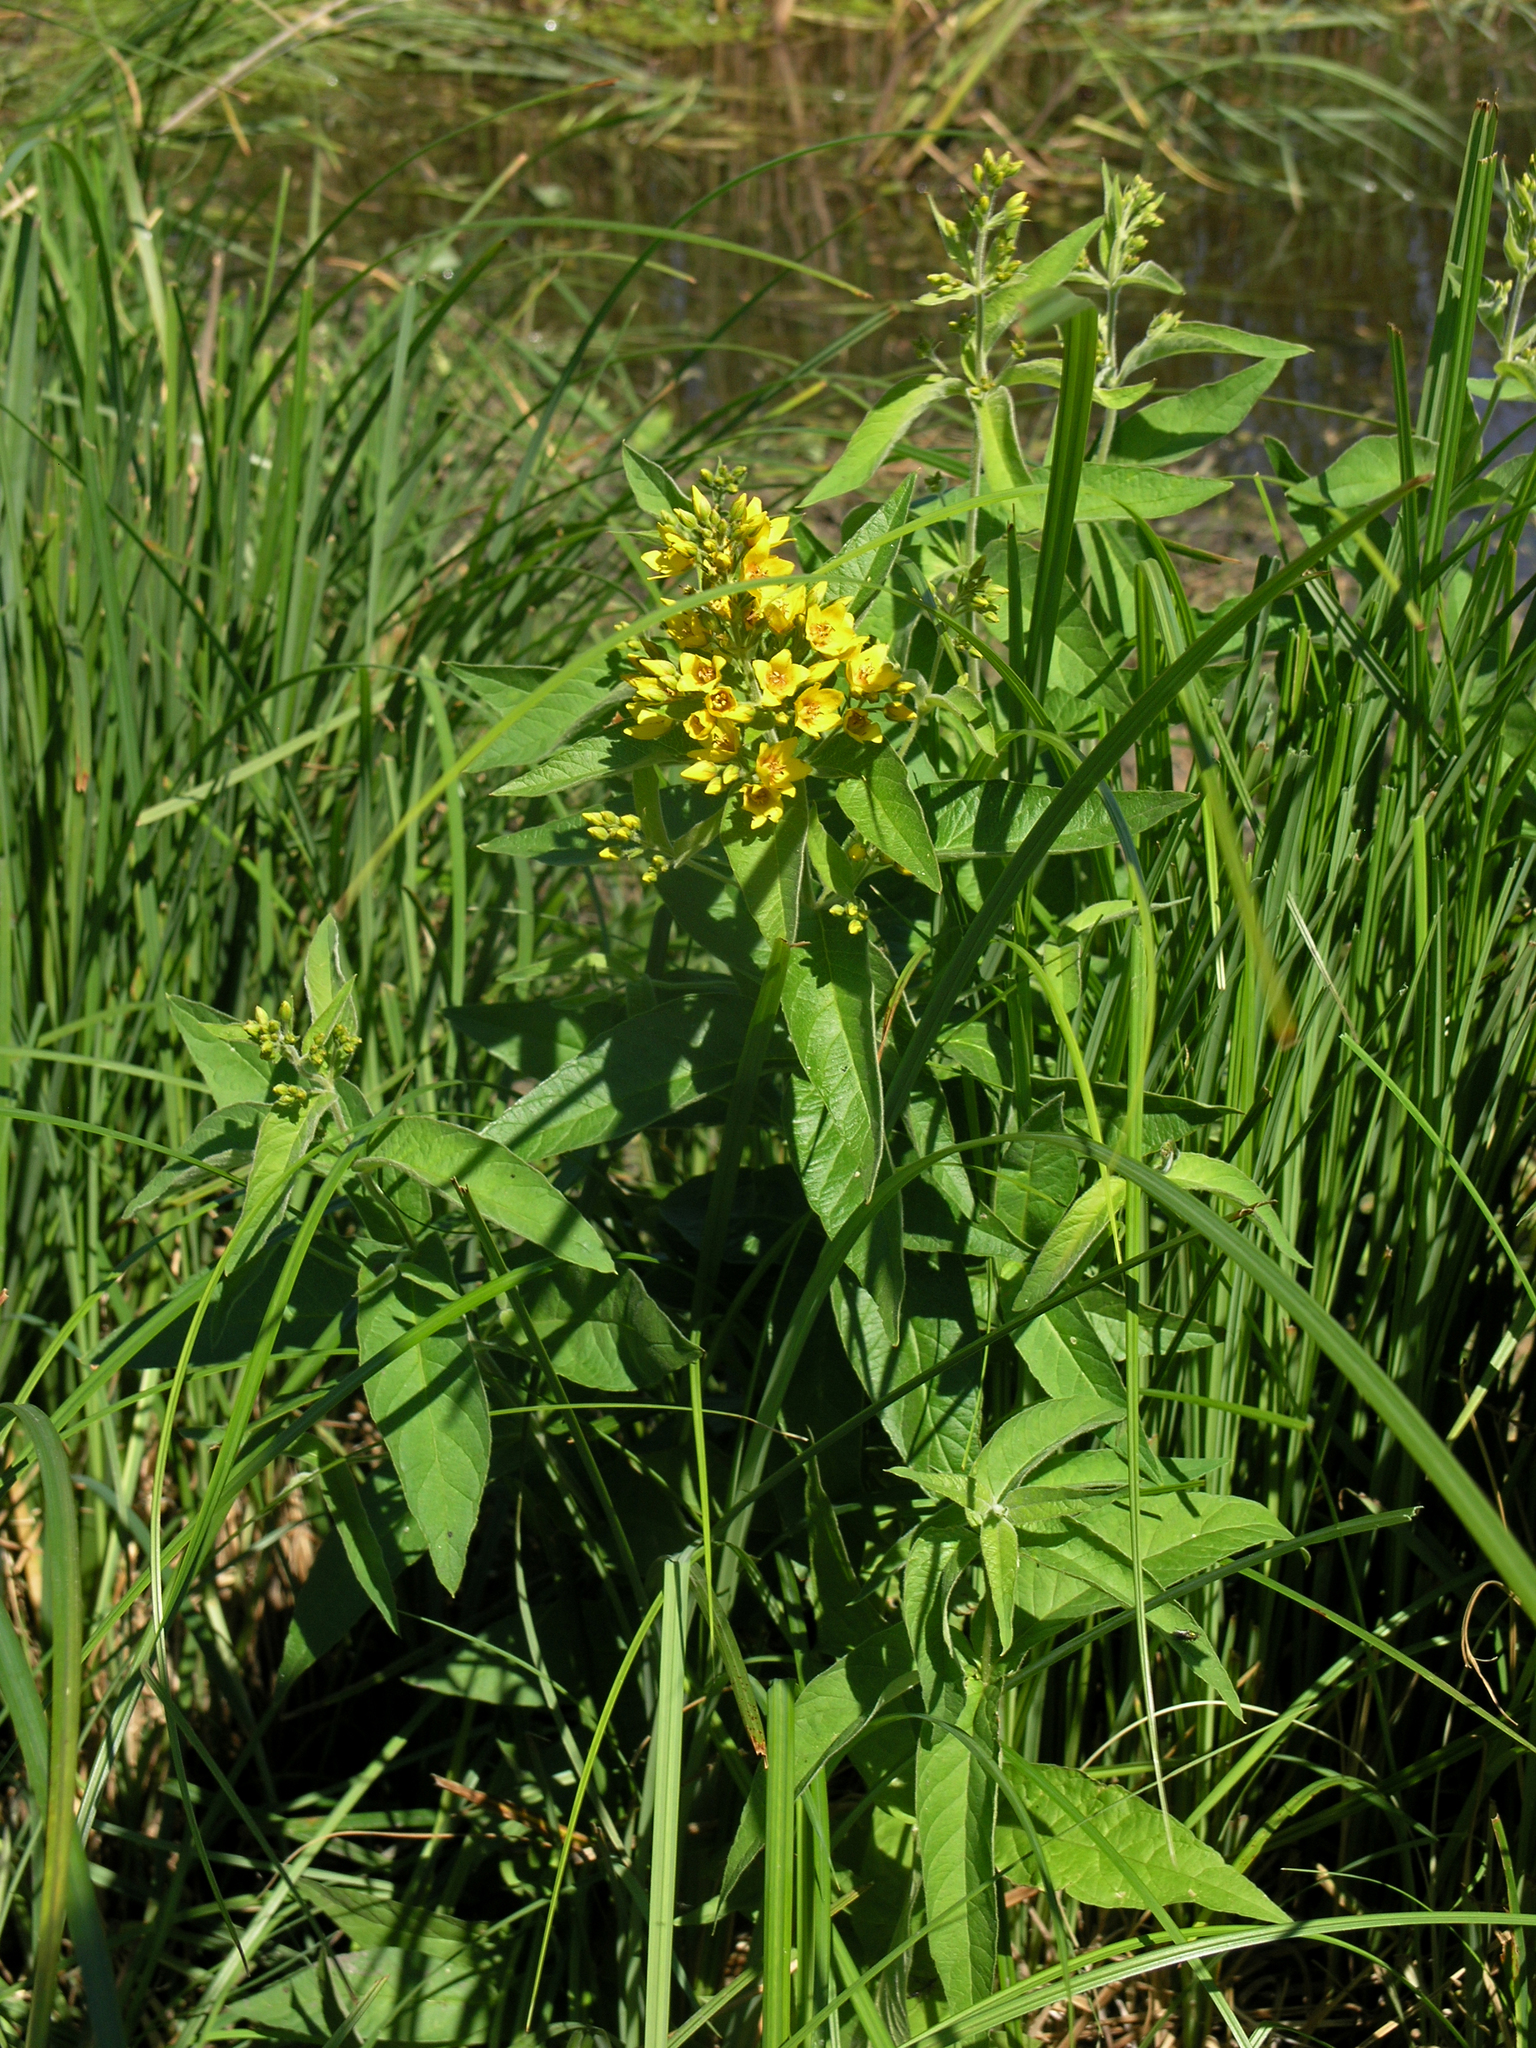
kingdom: Plantae
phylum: Tracheophyta
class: Magnoliopsida
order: Ericales
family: Primulaceae
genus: Lysimachia
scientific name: Lysimachia vulgaris
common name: Yellow loosestrife
